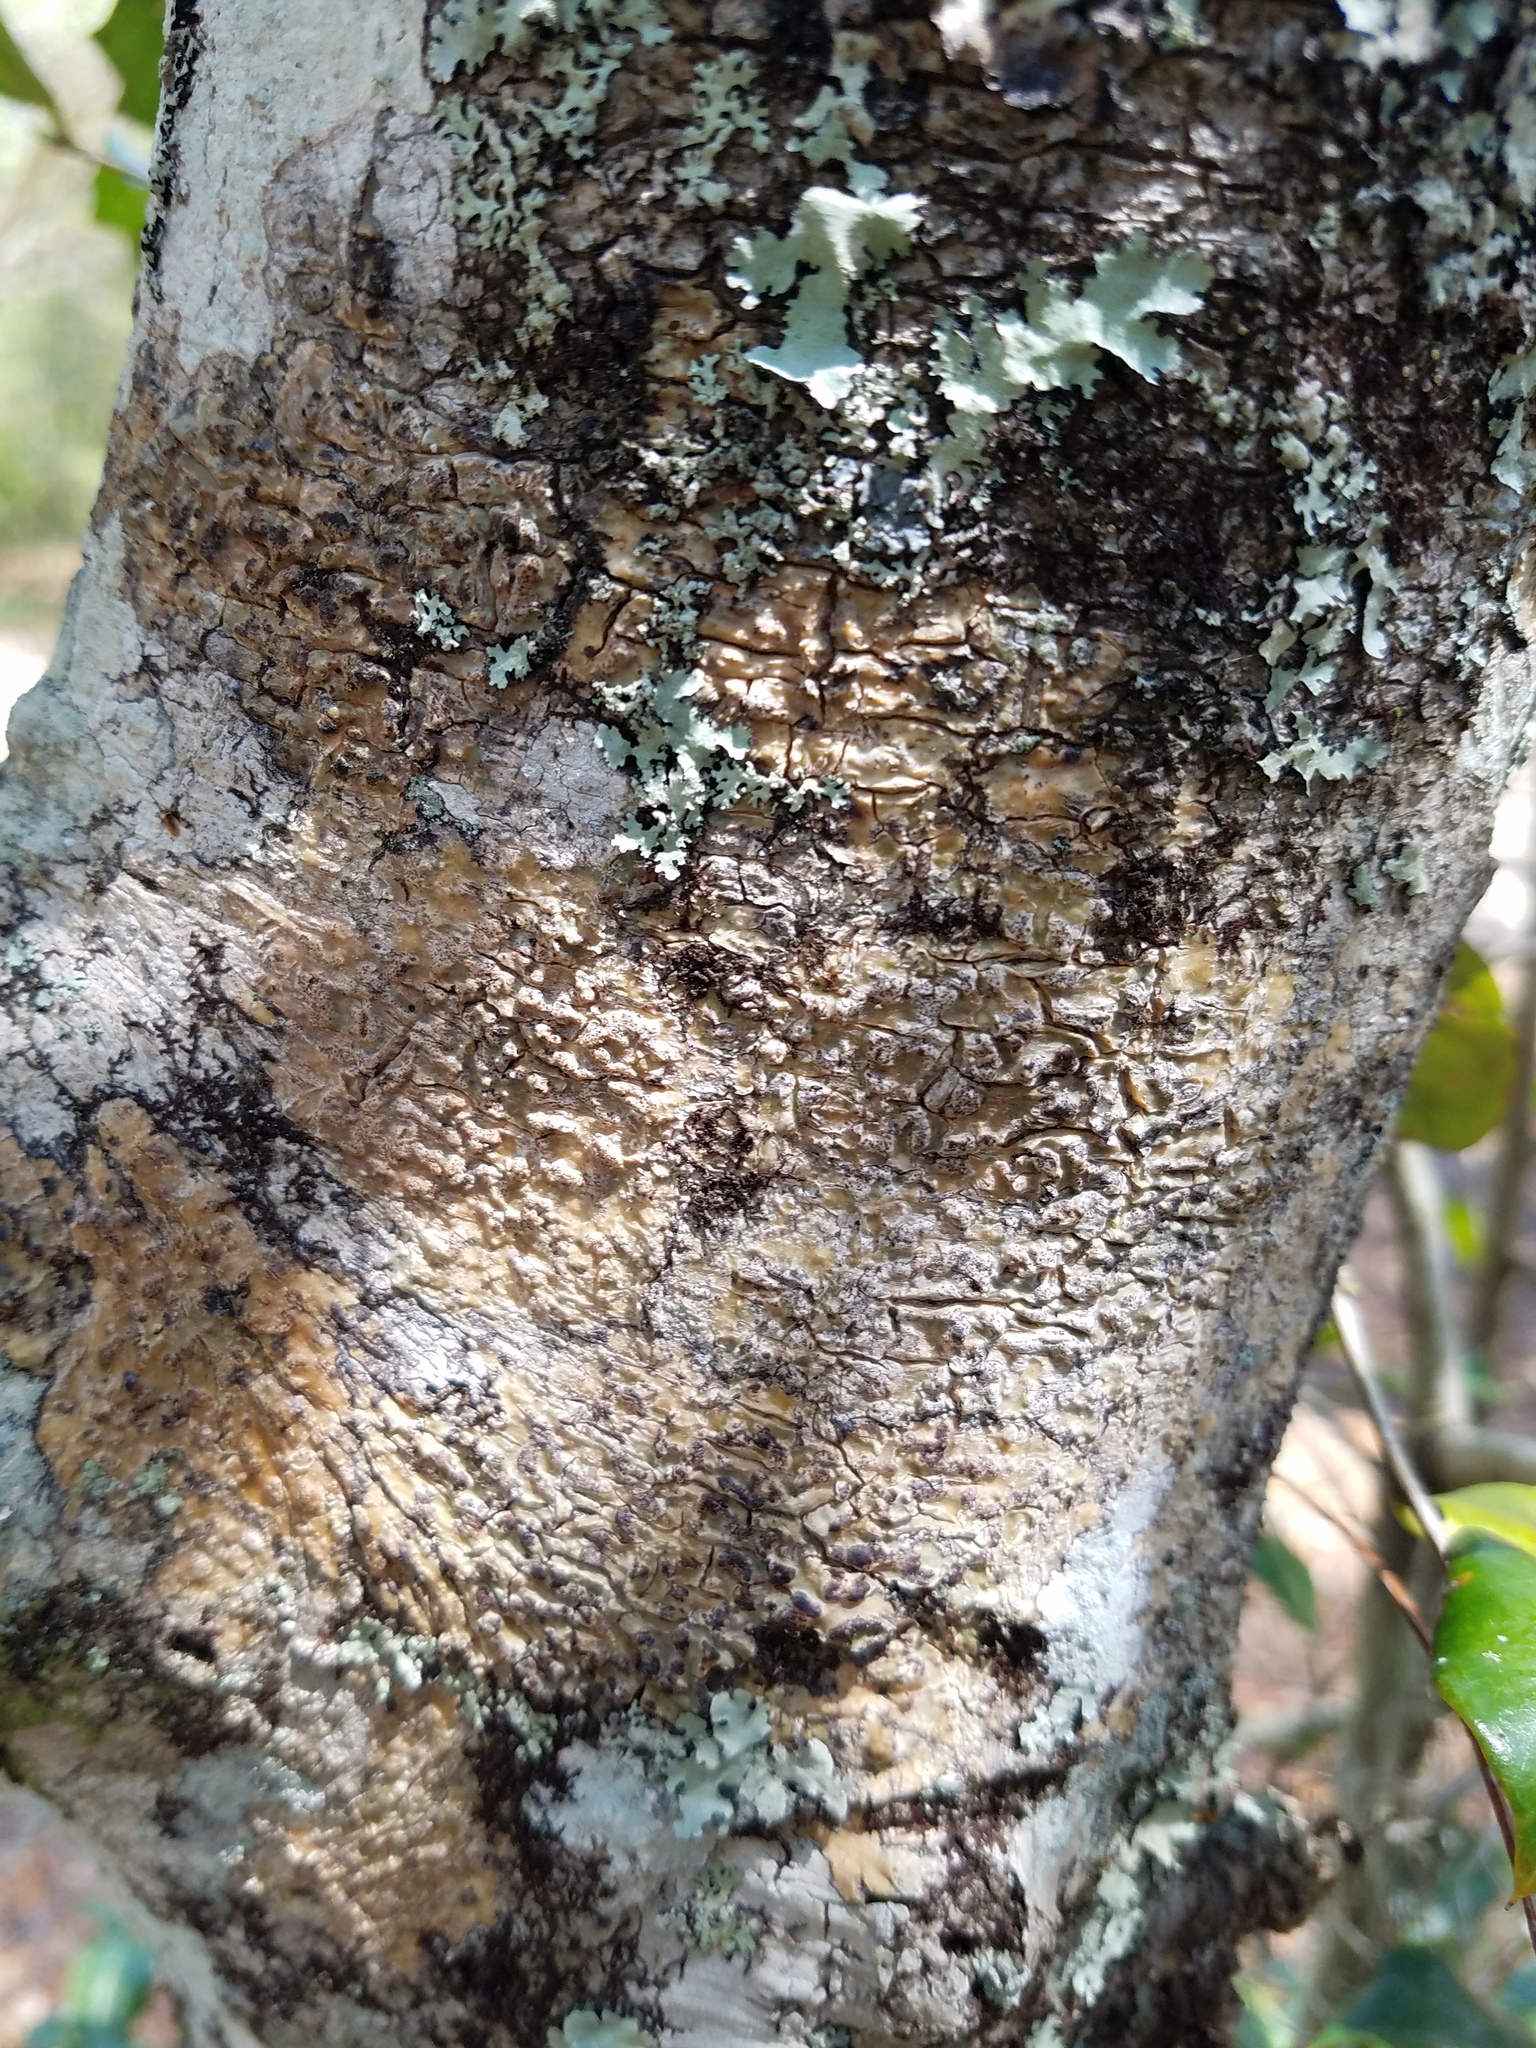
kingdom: Fungi
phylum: Ascomycota
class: Dothideomycetes
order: Trypetheliales
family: Trypetheliaceae
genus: Viridothelium
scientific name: Viridothelium virens
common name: Speckled blister lichen
